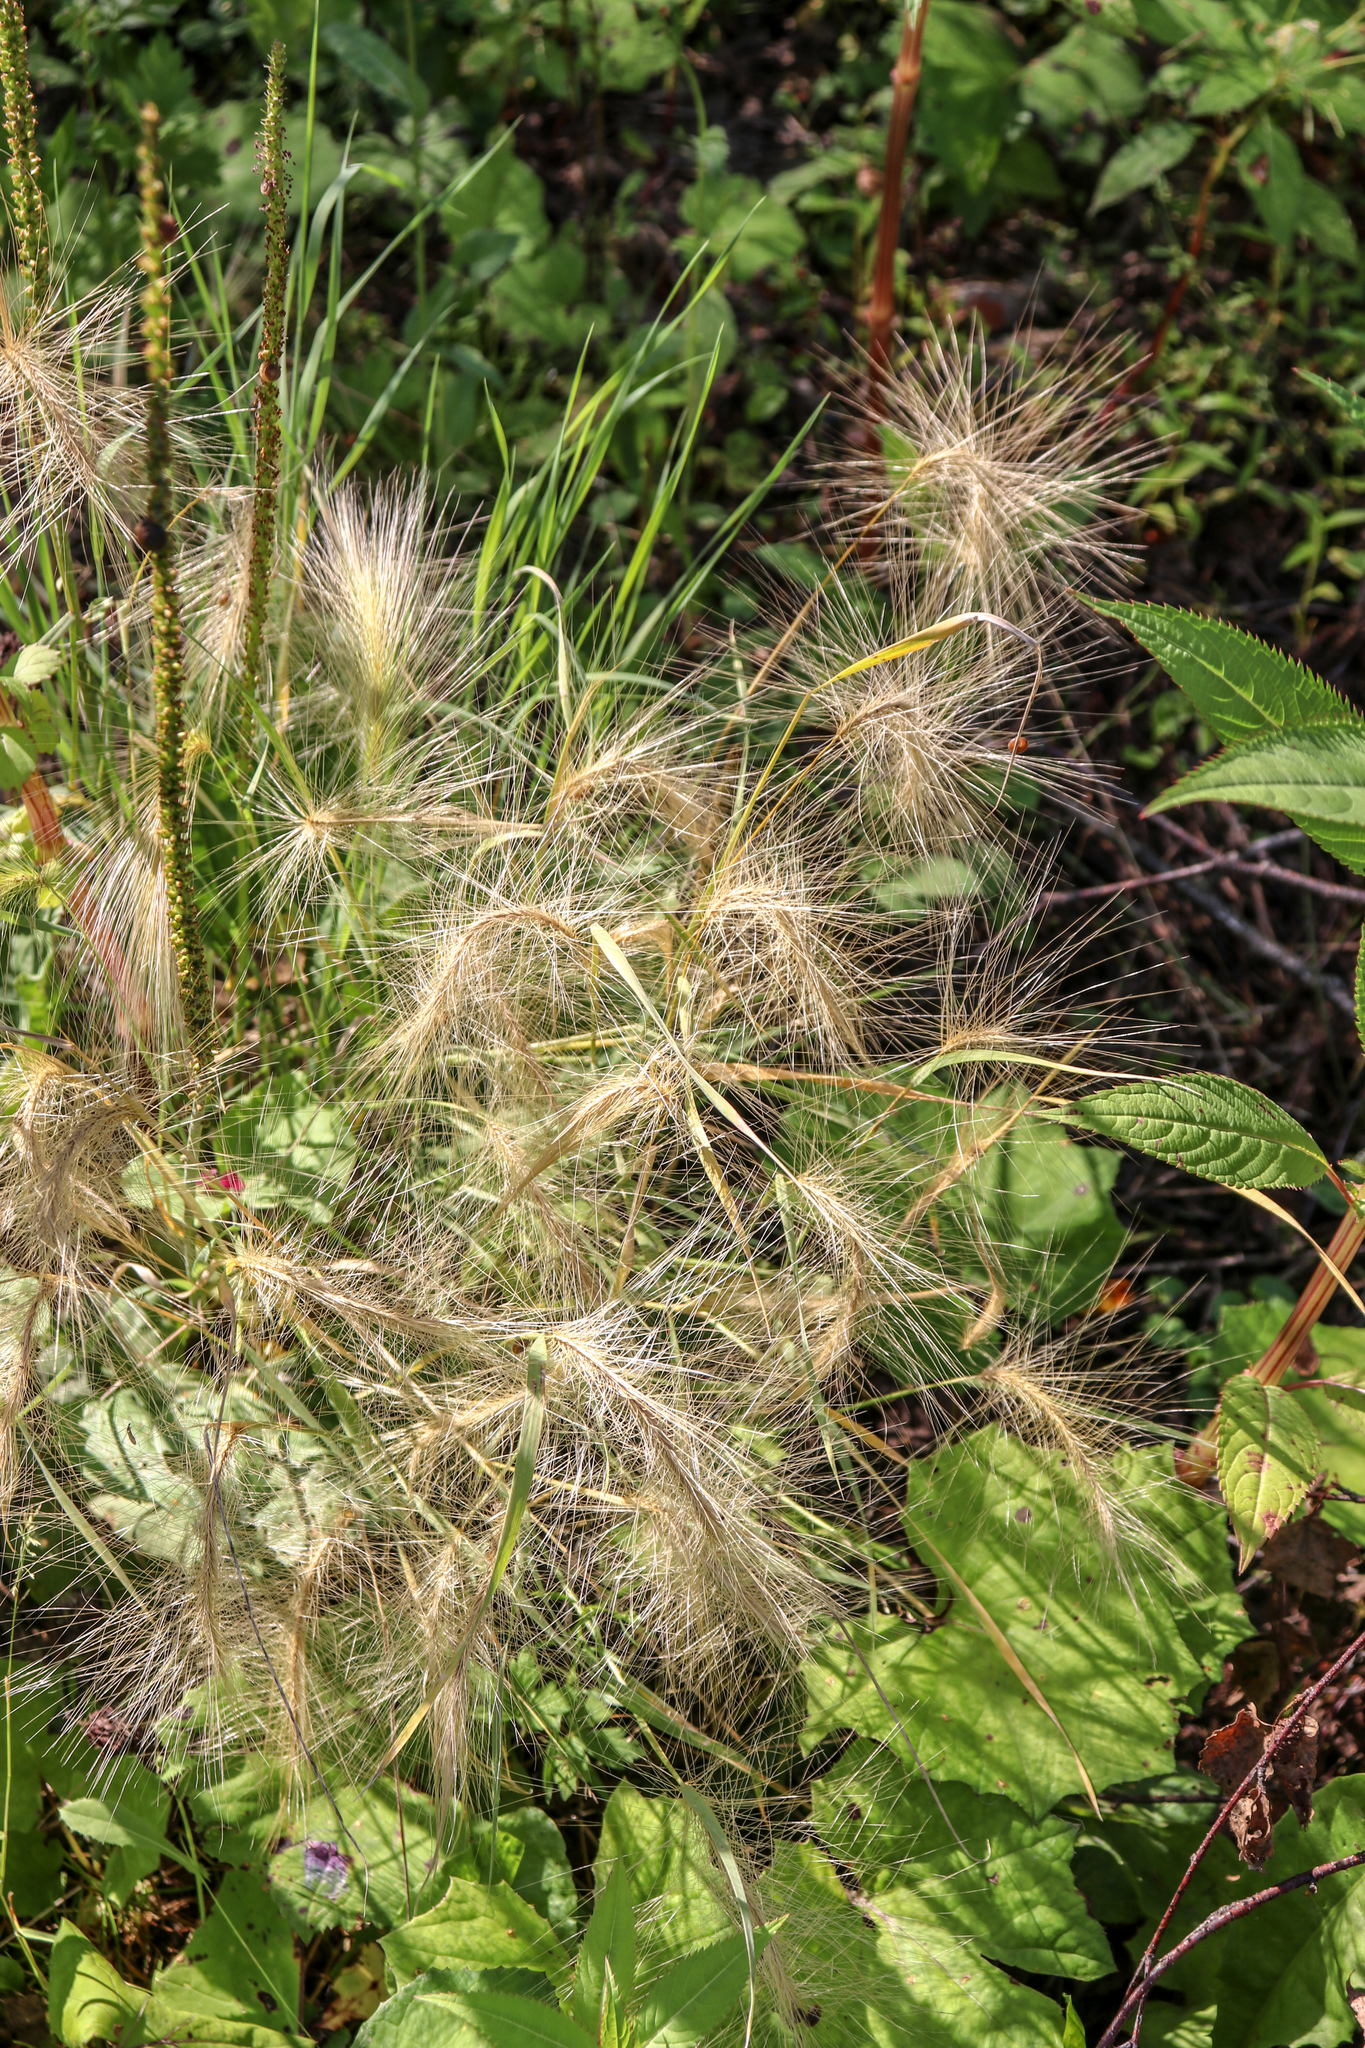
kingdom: Plantae
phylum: Tracheophyta
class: Liliopsida
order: Poales
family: Poaceae
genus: Hordeum
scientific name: Hordeum jubatum
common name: Foxtail barley
